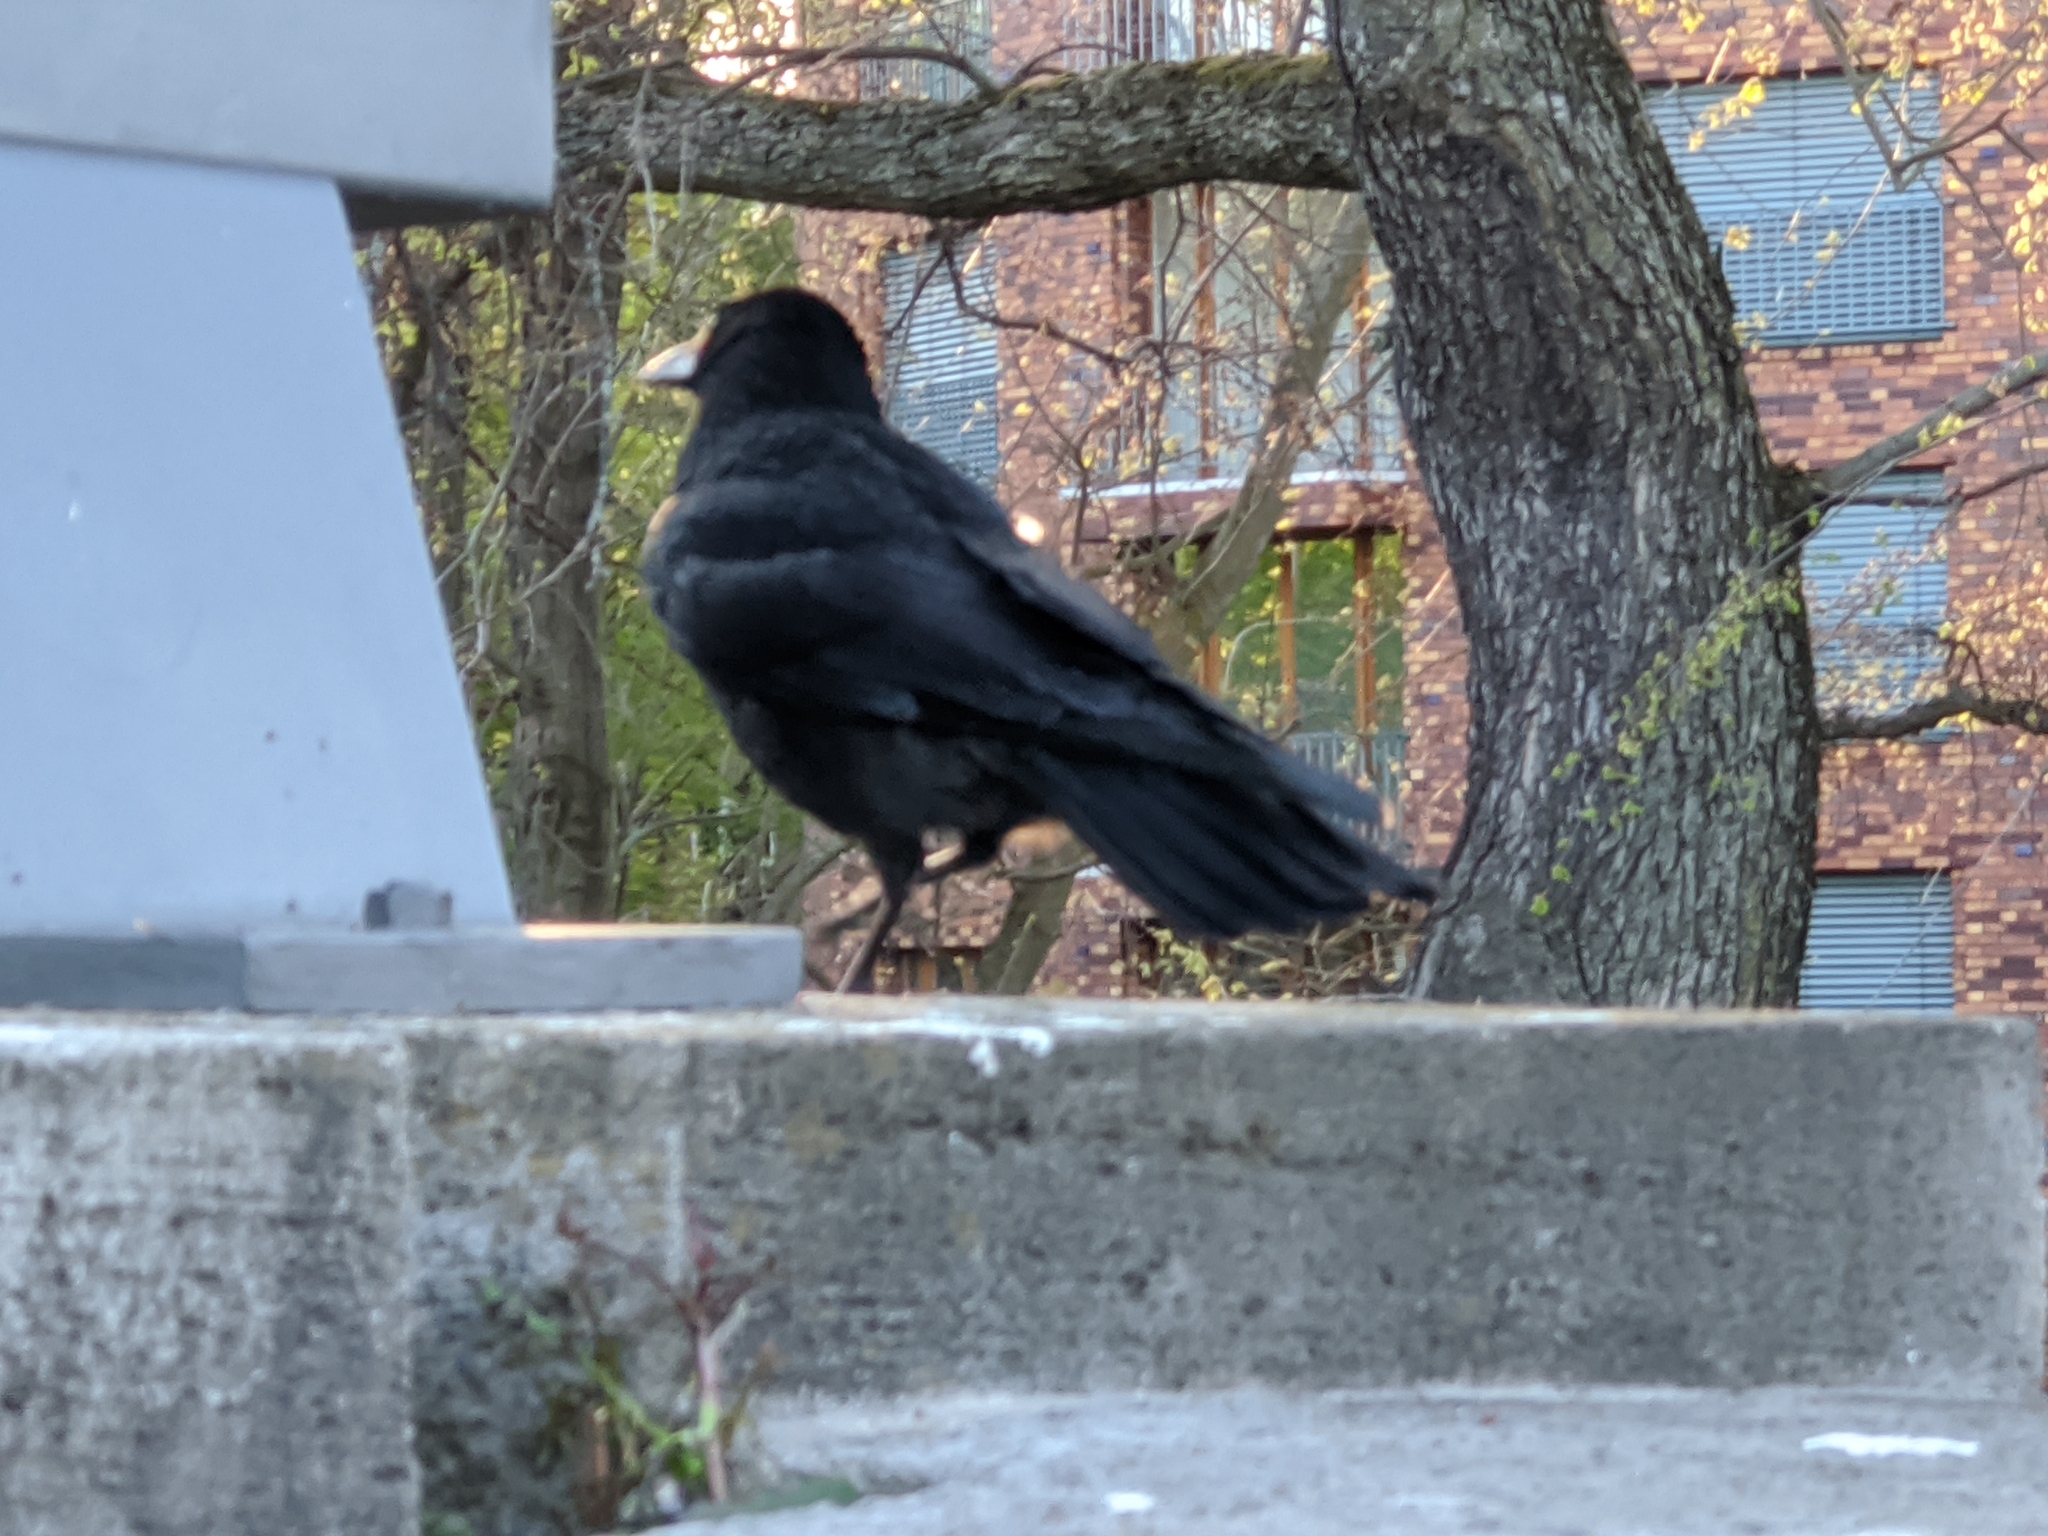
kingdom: Animalia
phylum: Chordata
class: Aves
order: Passeriformes
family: Corvidae
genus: Corvus
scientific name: Corvus corone
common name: Carrion crow
